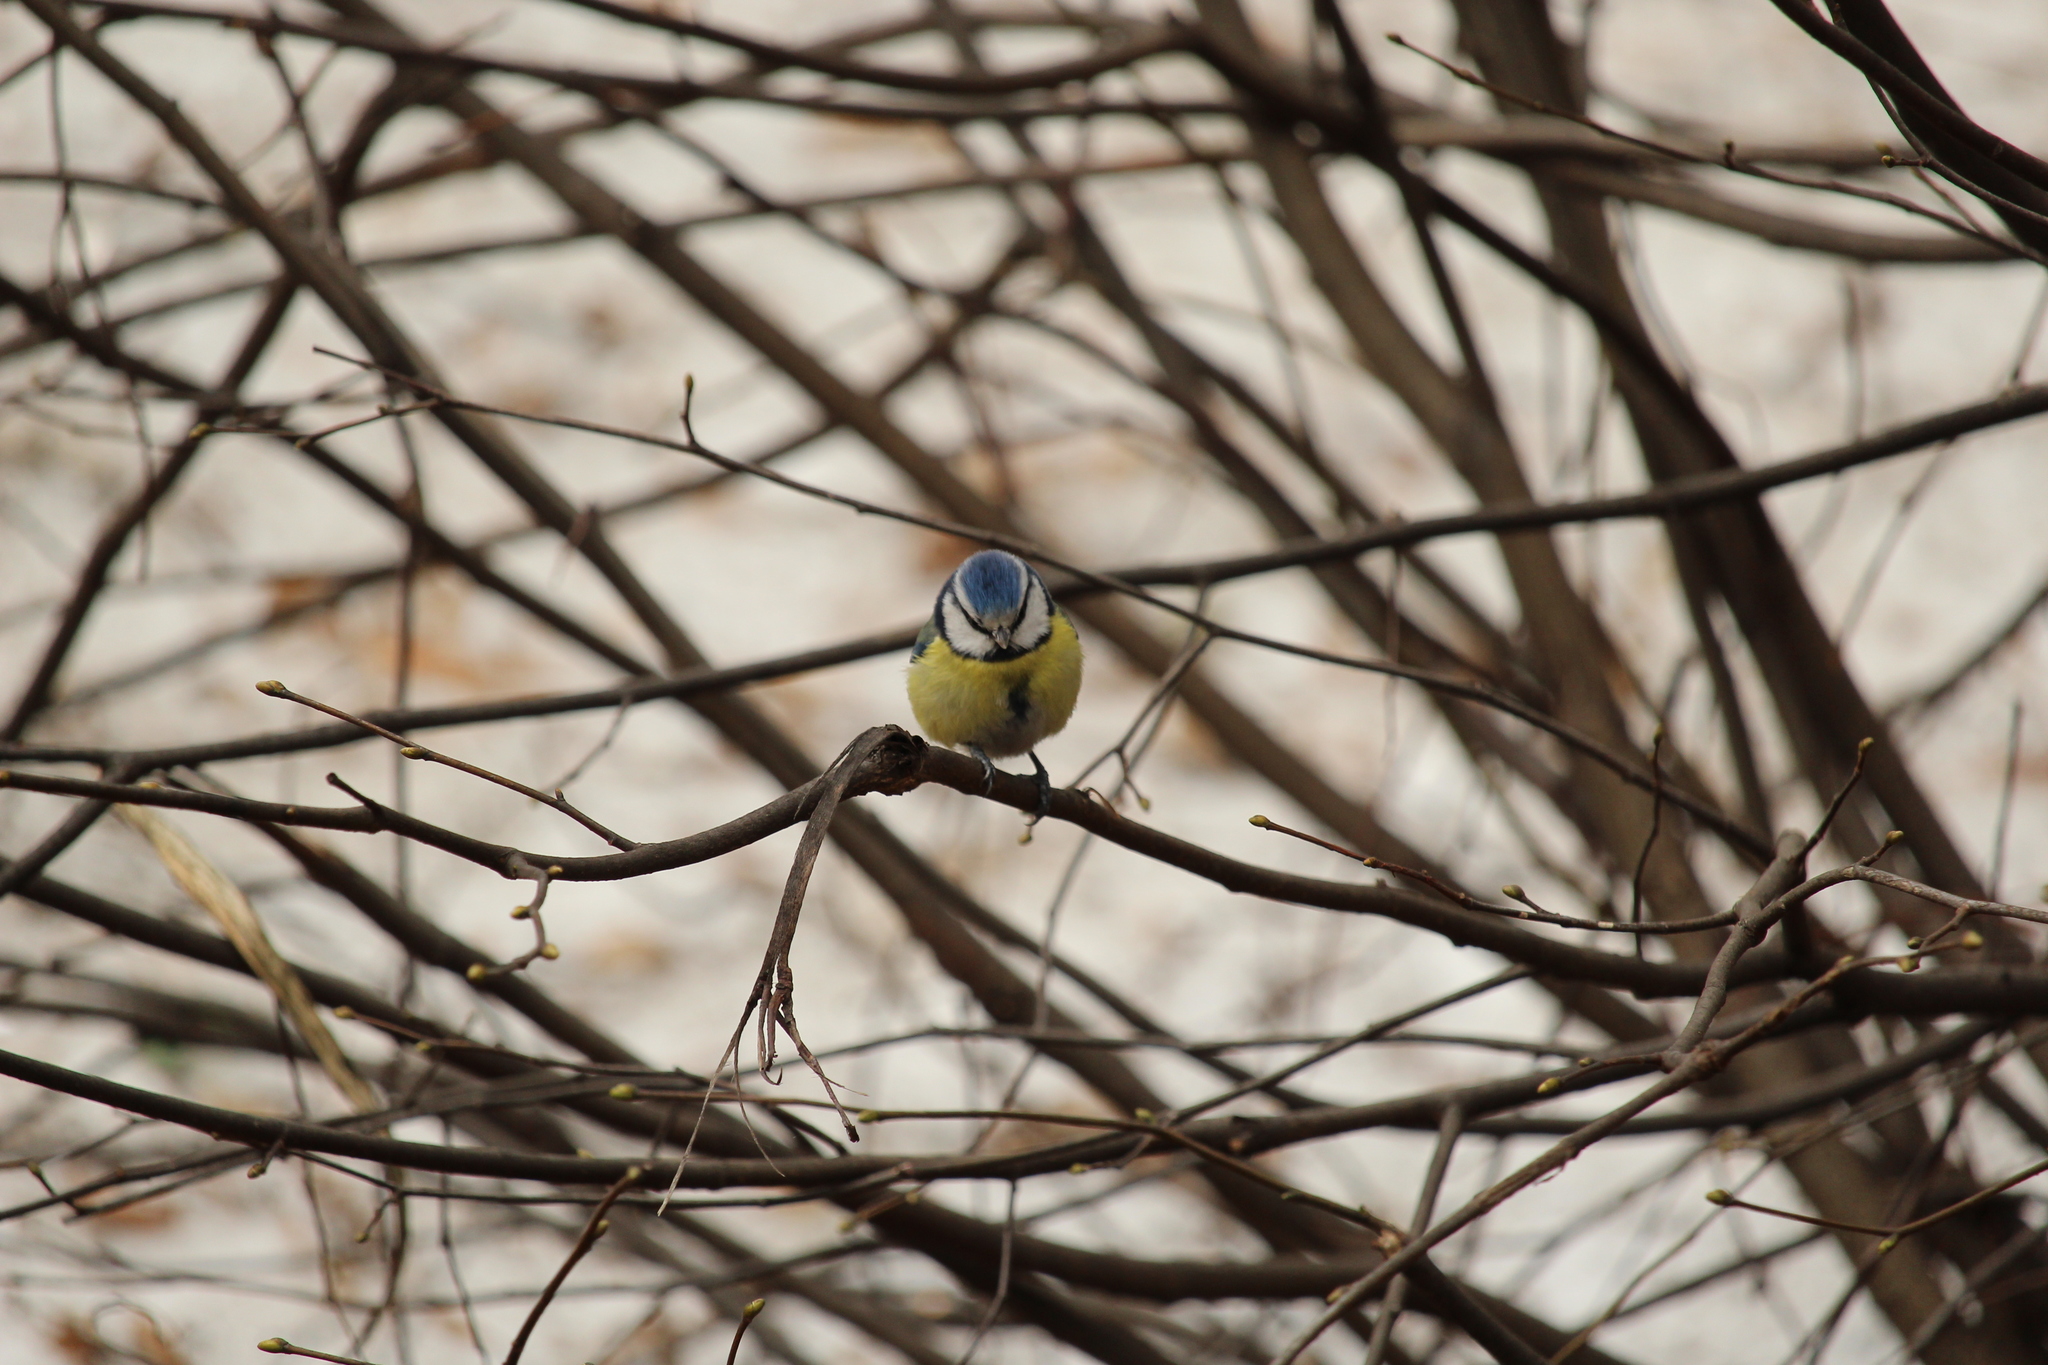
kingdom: Animalia
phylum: Chordata
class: Aves
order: Passeriformes
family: Paridae
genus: Cyanistes
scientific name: Cyanistes caeruleus
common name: Eurasian blue tit
